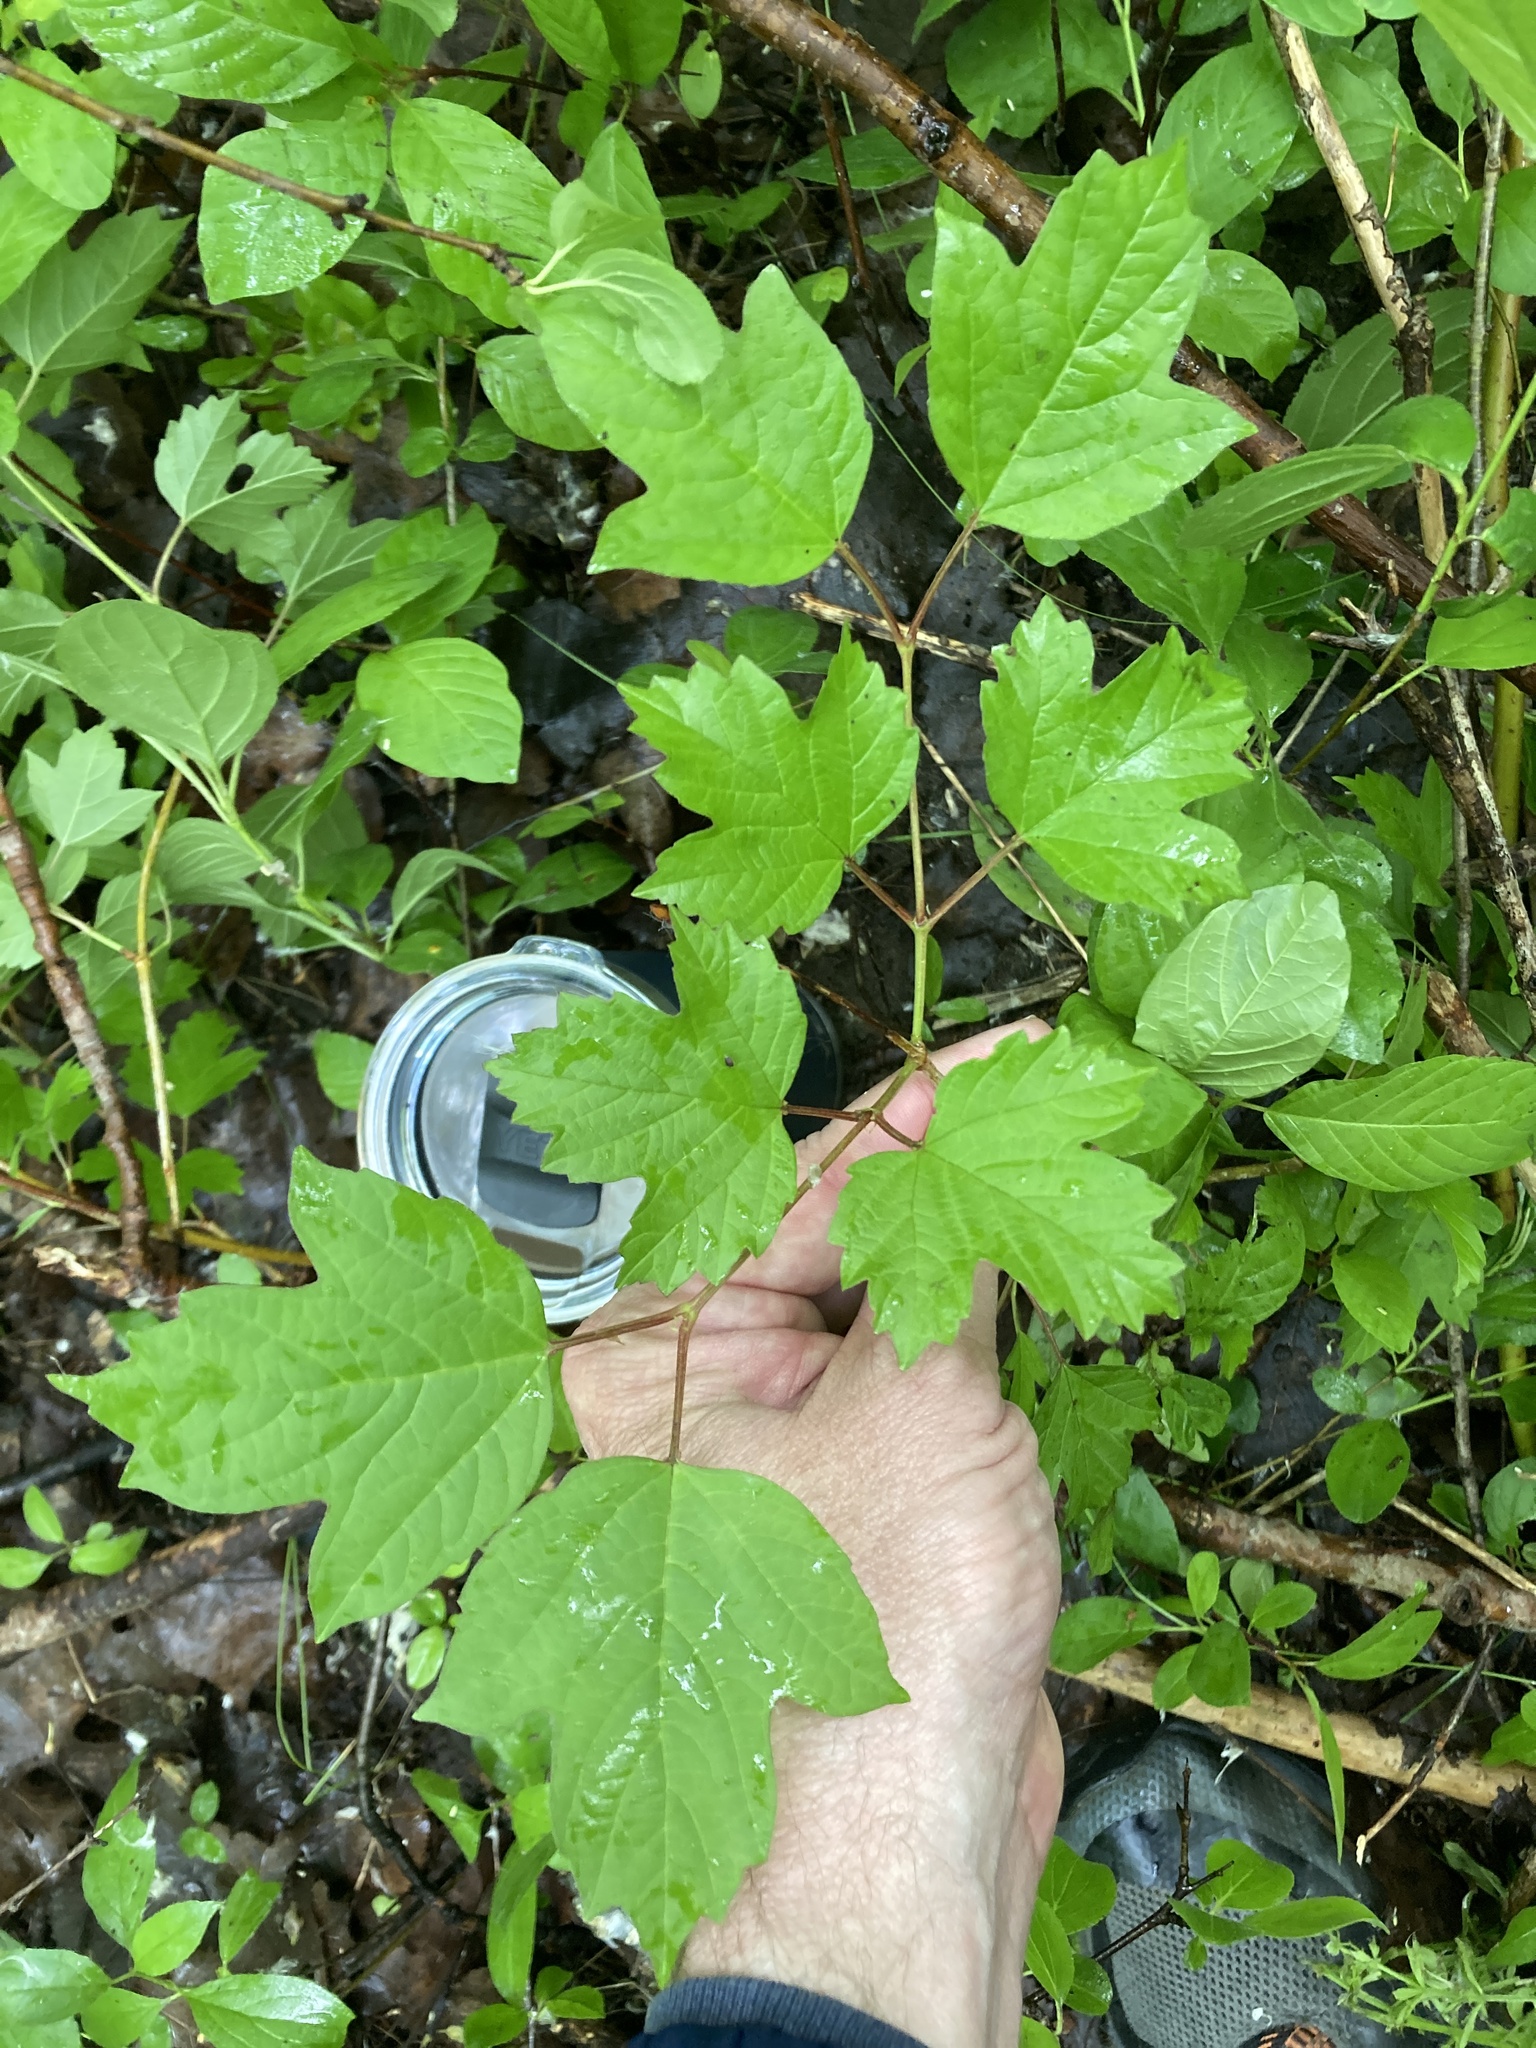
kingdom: Plantae
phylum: Tracheophyta
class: Magnoliopsida
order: Dipsacales
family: Viburnaceae
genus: Viburnum
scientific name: Viburnum opulus
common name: Guelder-rose
